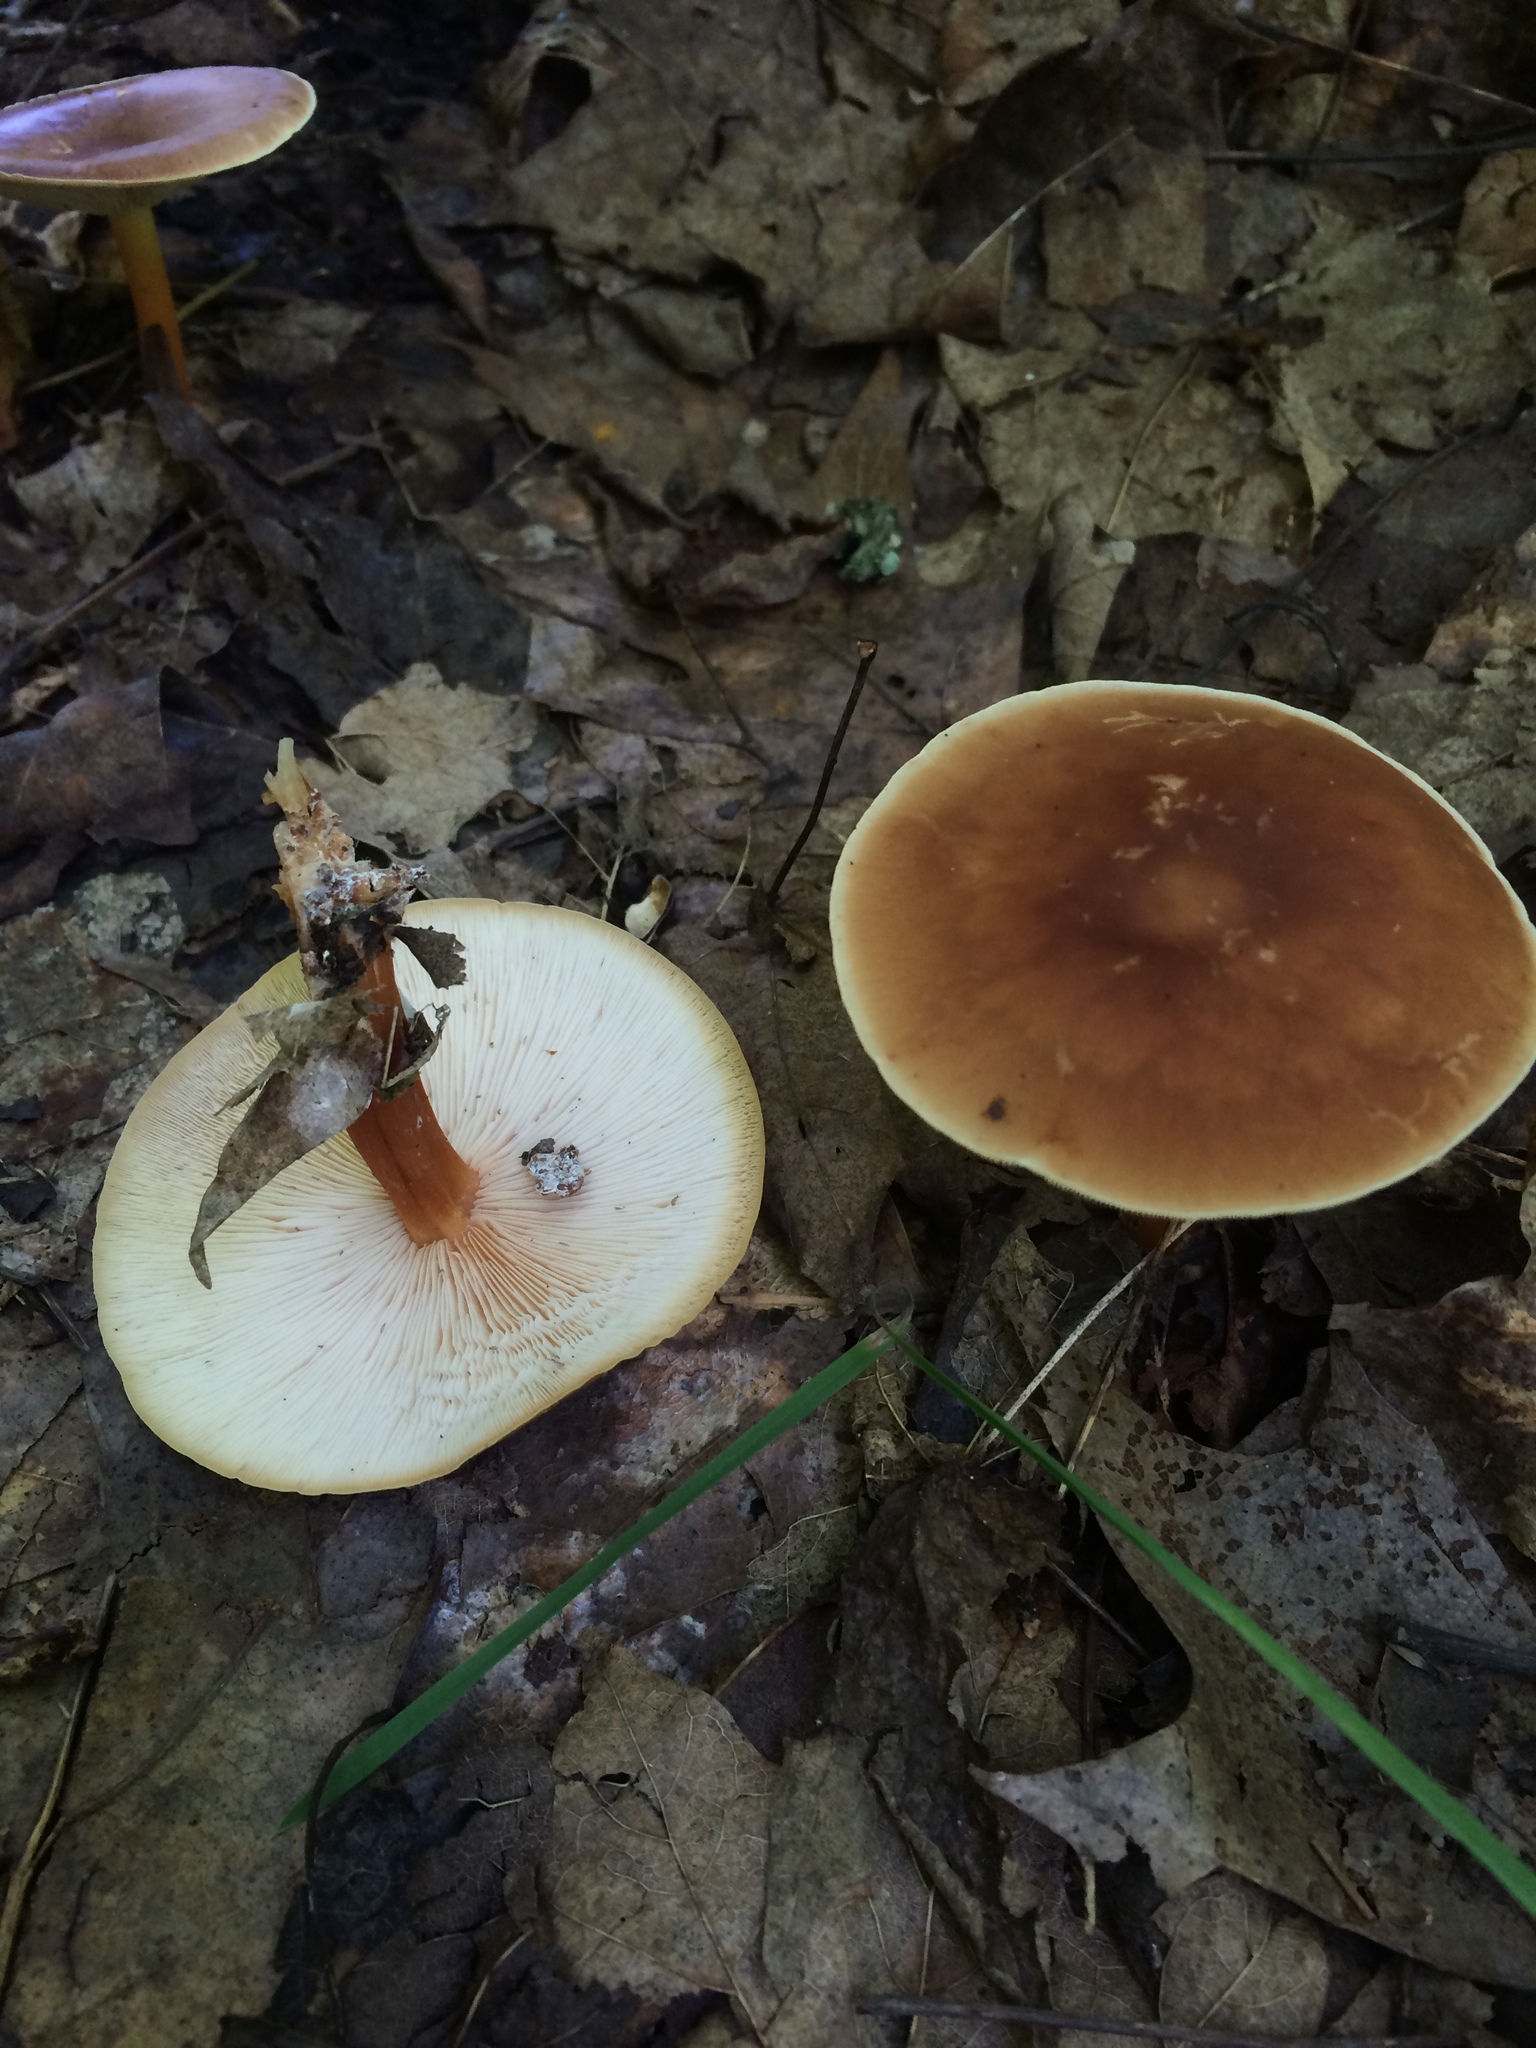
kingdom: Fungi
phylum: Basidiomycota
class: Agaricomycetes
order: Agaricales
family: Omphalotaceae
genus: Gymnopus
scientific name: Gymnopus dryophilus
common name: Penny top
